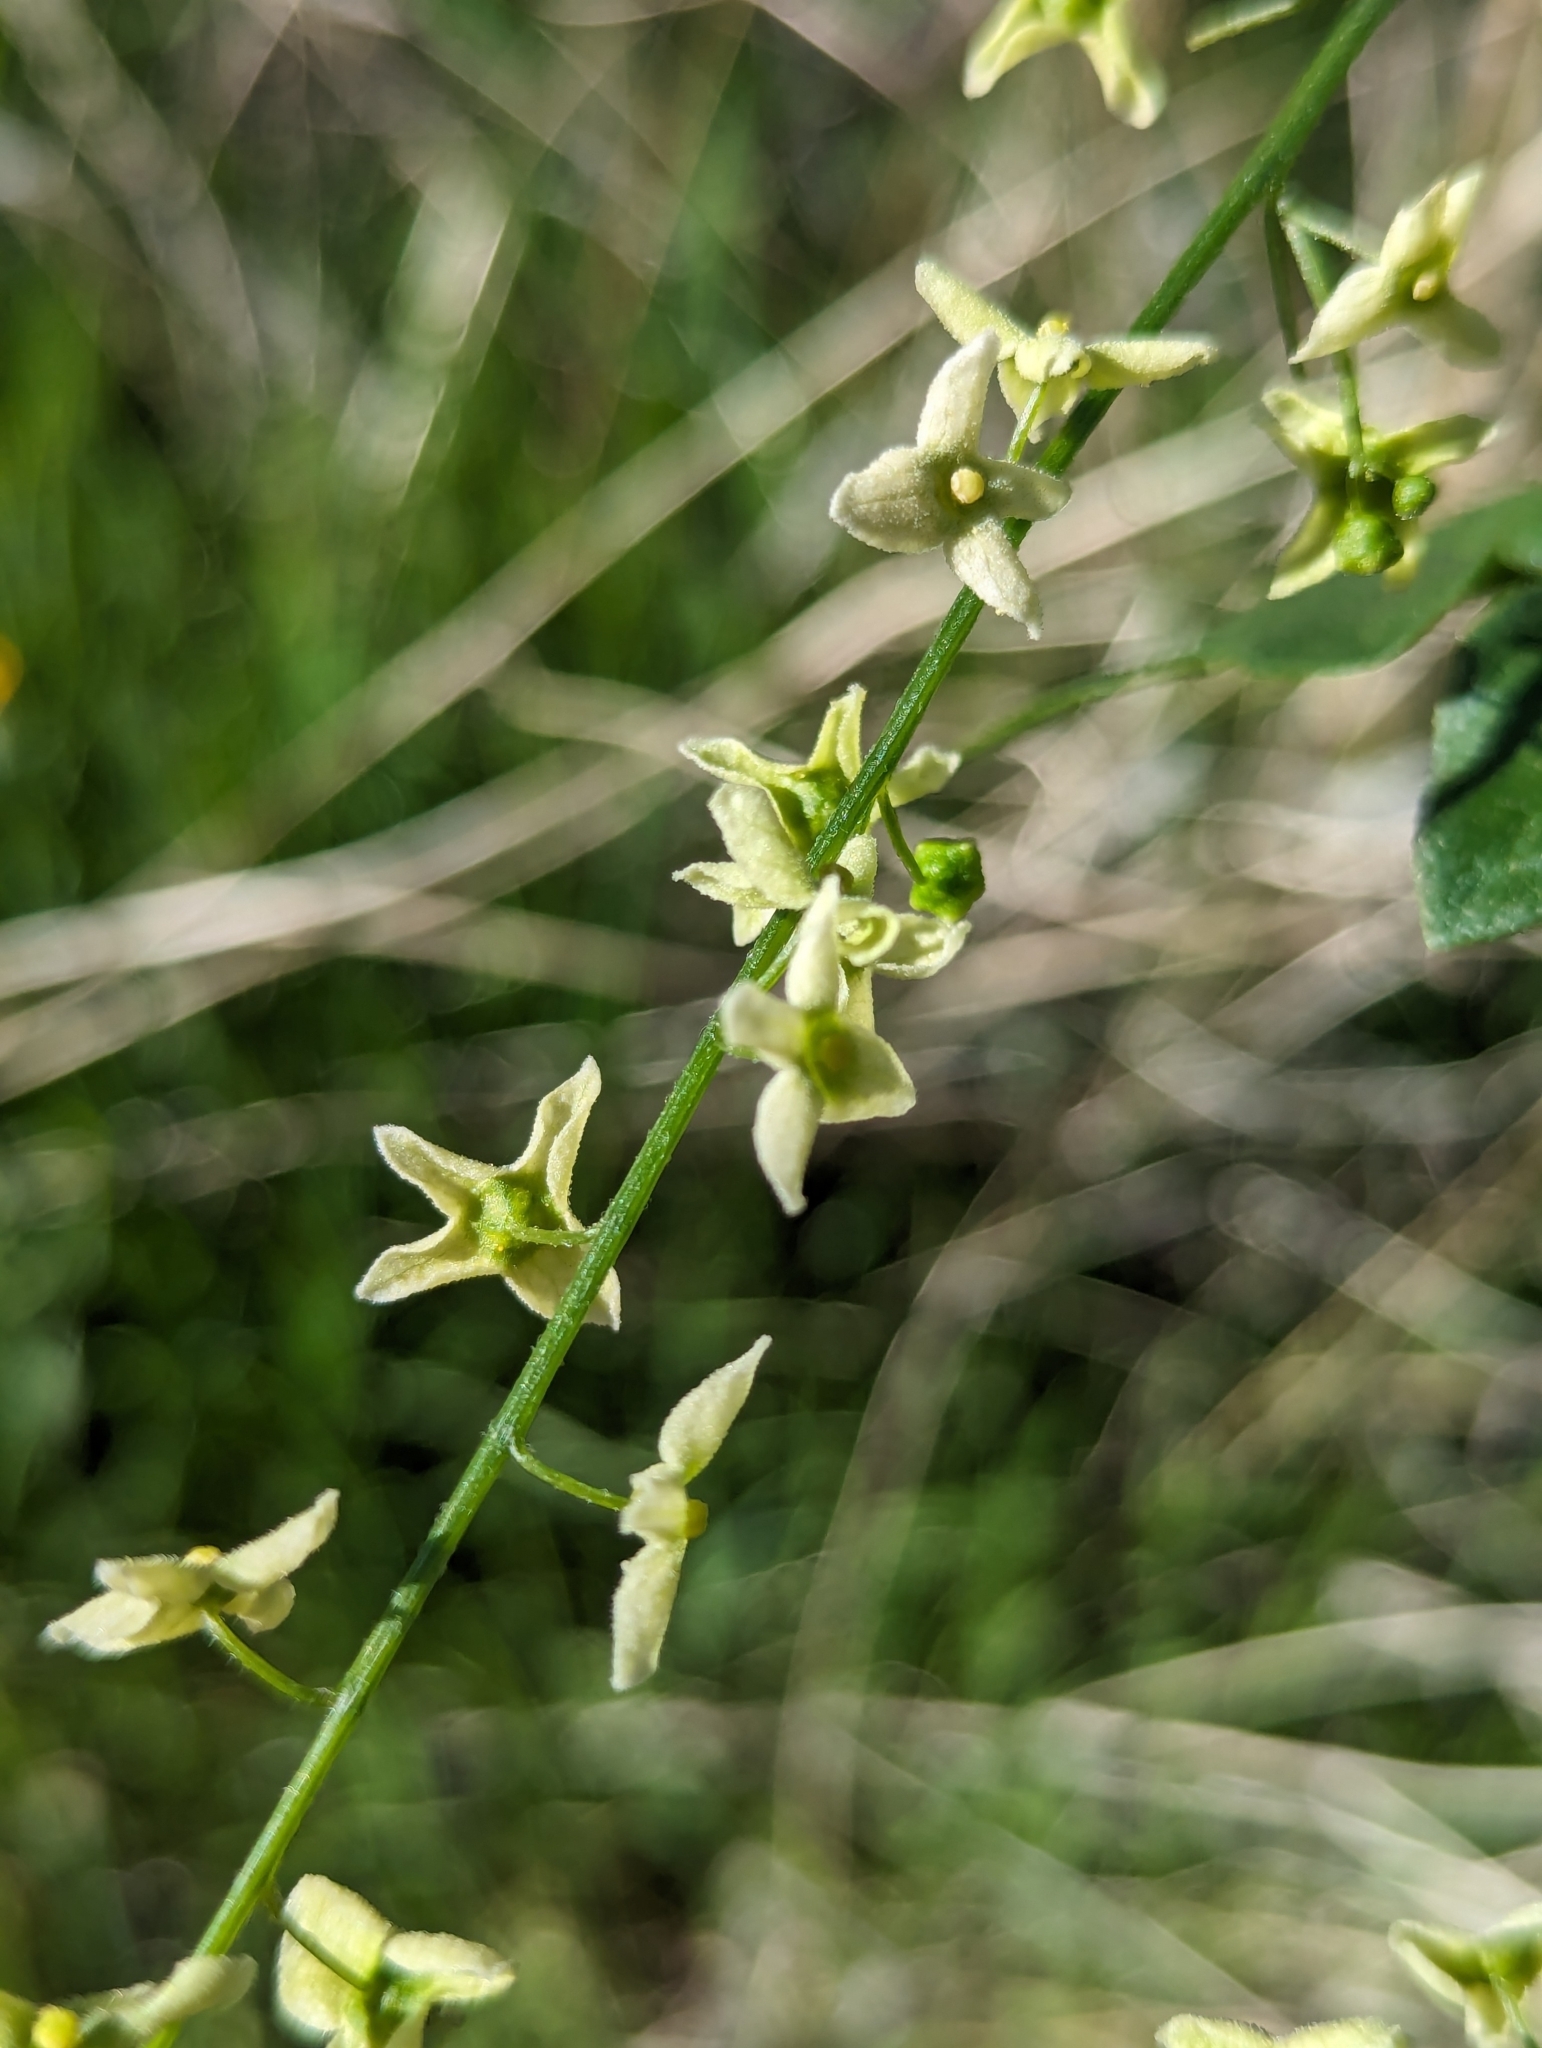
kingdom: Plantae
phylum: Tracheophyta
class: Magnoliopsida
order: Cucurbitales
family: Cucurbitaceae
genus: Marah
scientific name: Marah gilensis
